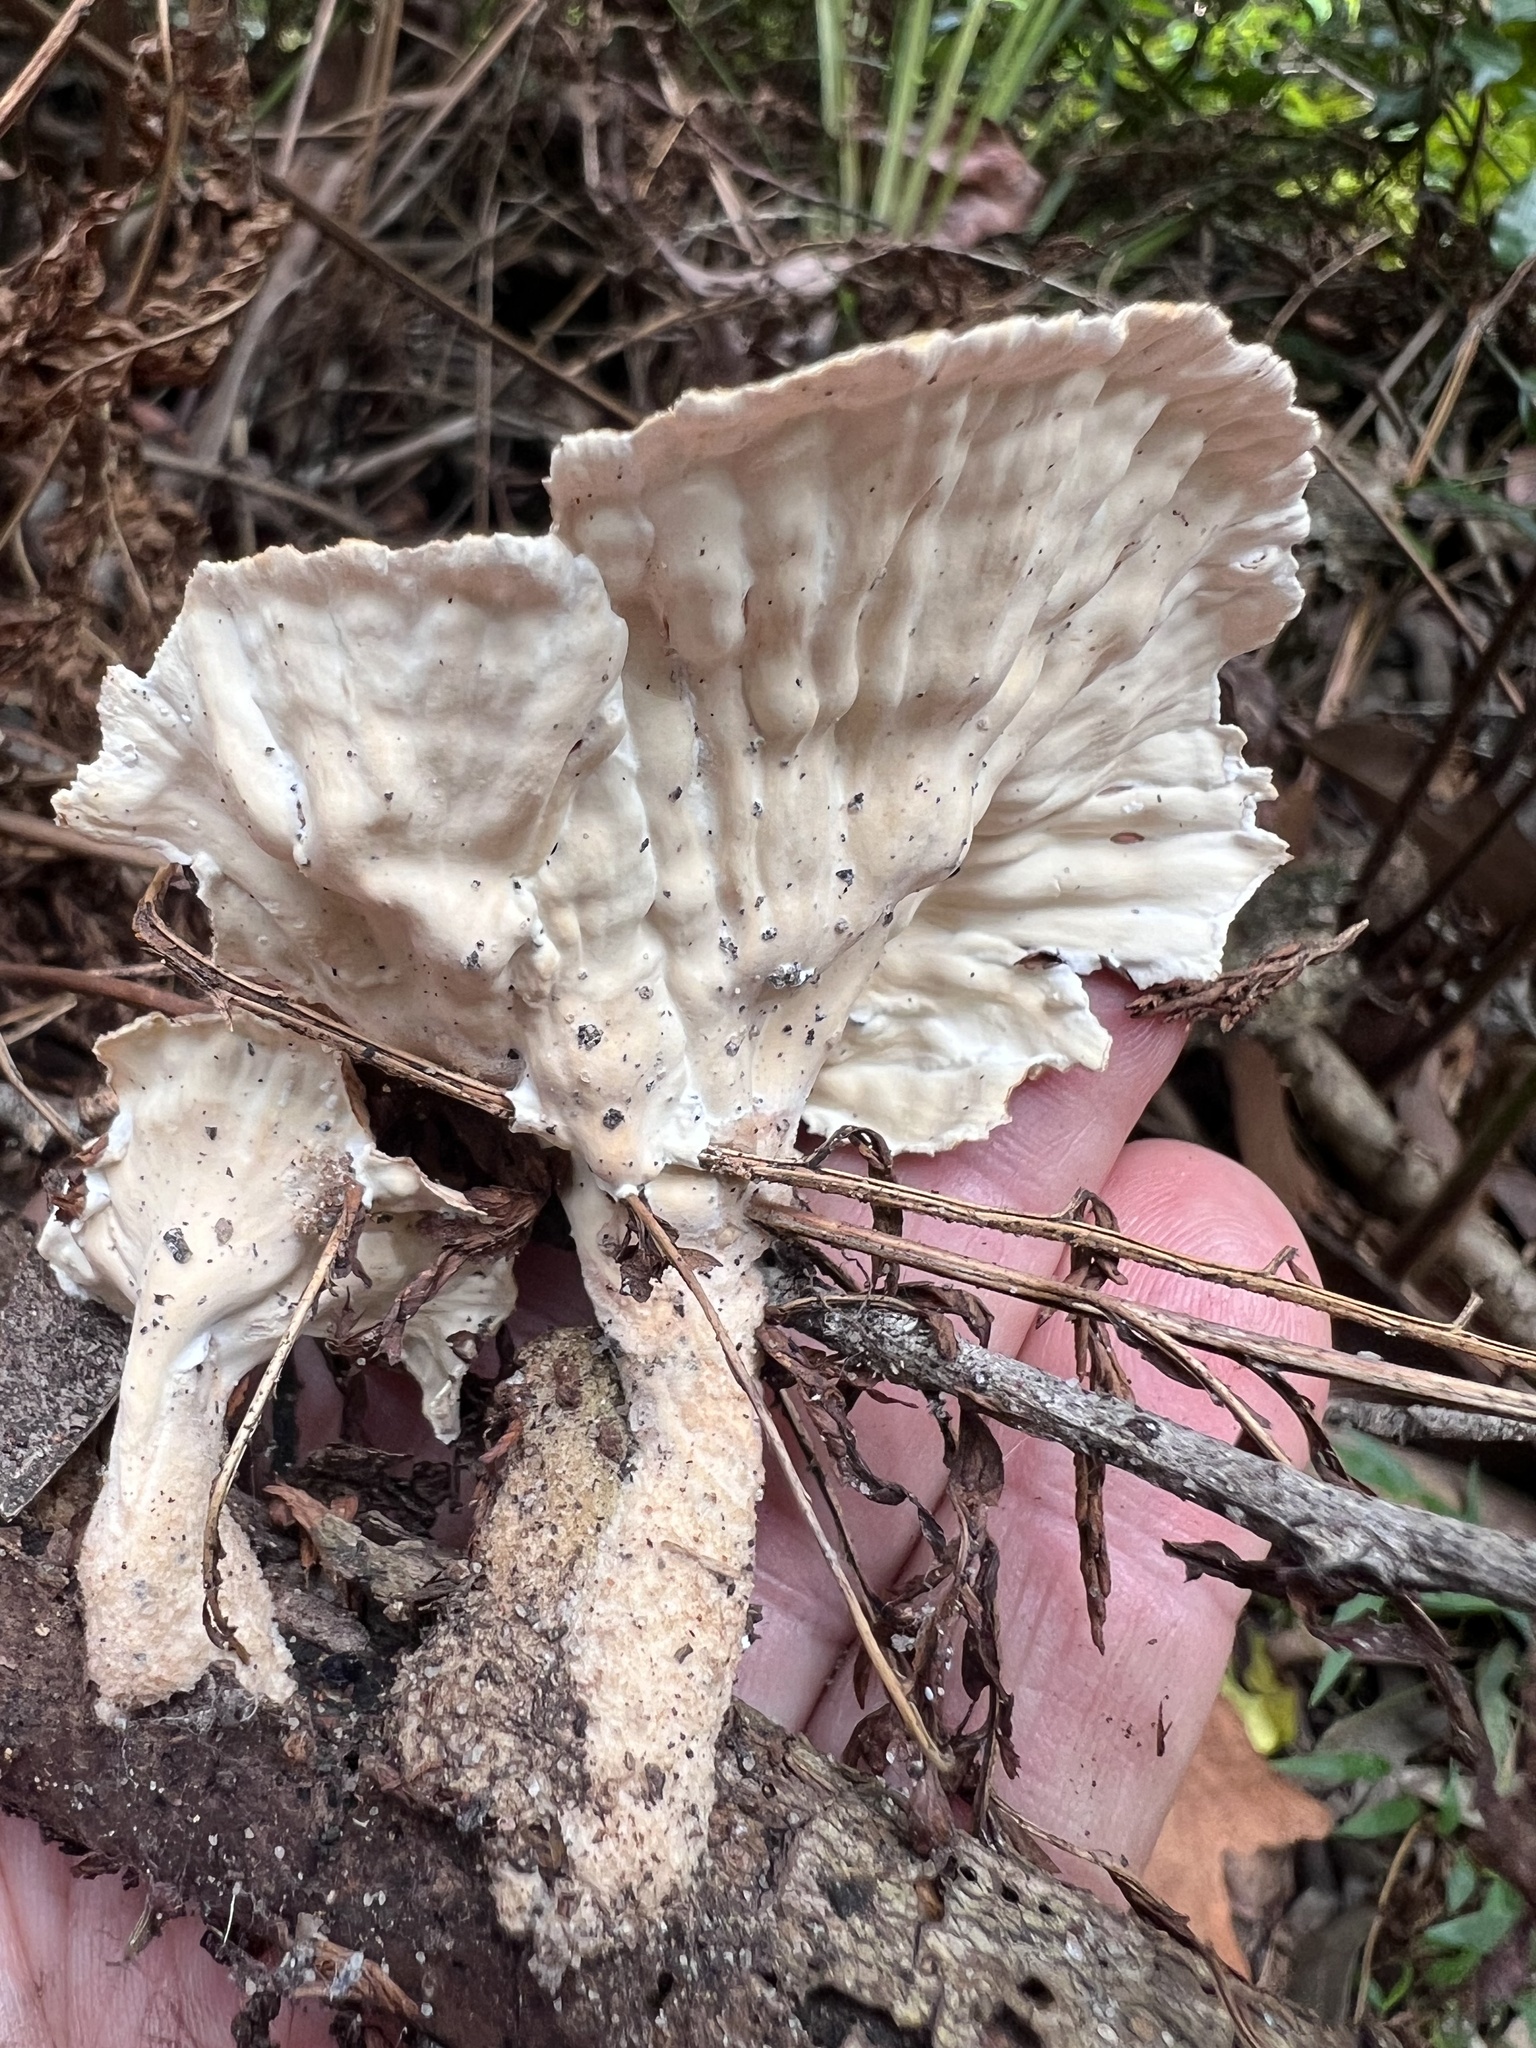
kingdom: Fungi
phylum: Basidiomycota
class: Agaricomycetes
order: Polyporales
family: Panaceae
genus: Cymatoderma
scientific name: Cymatoderma elegans
